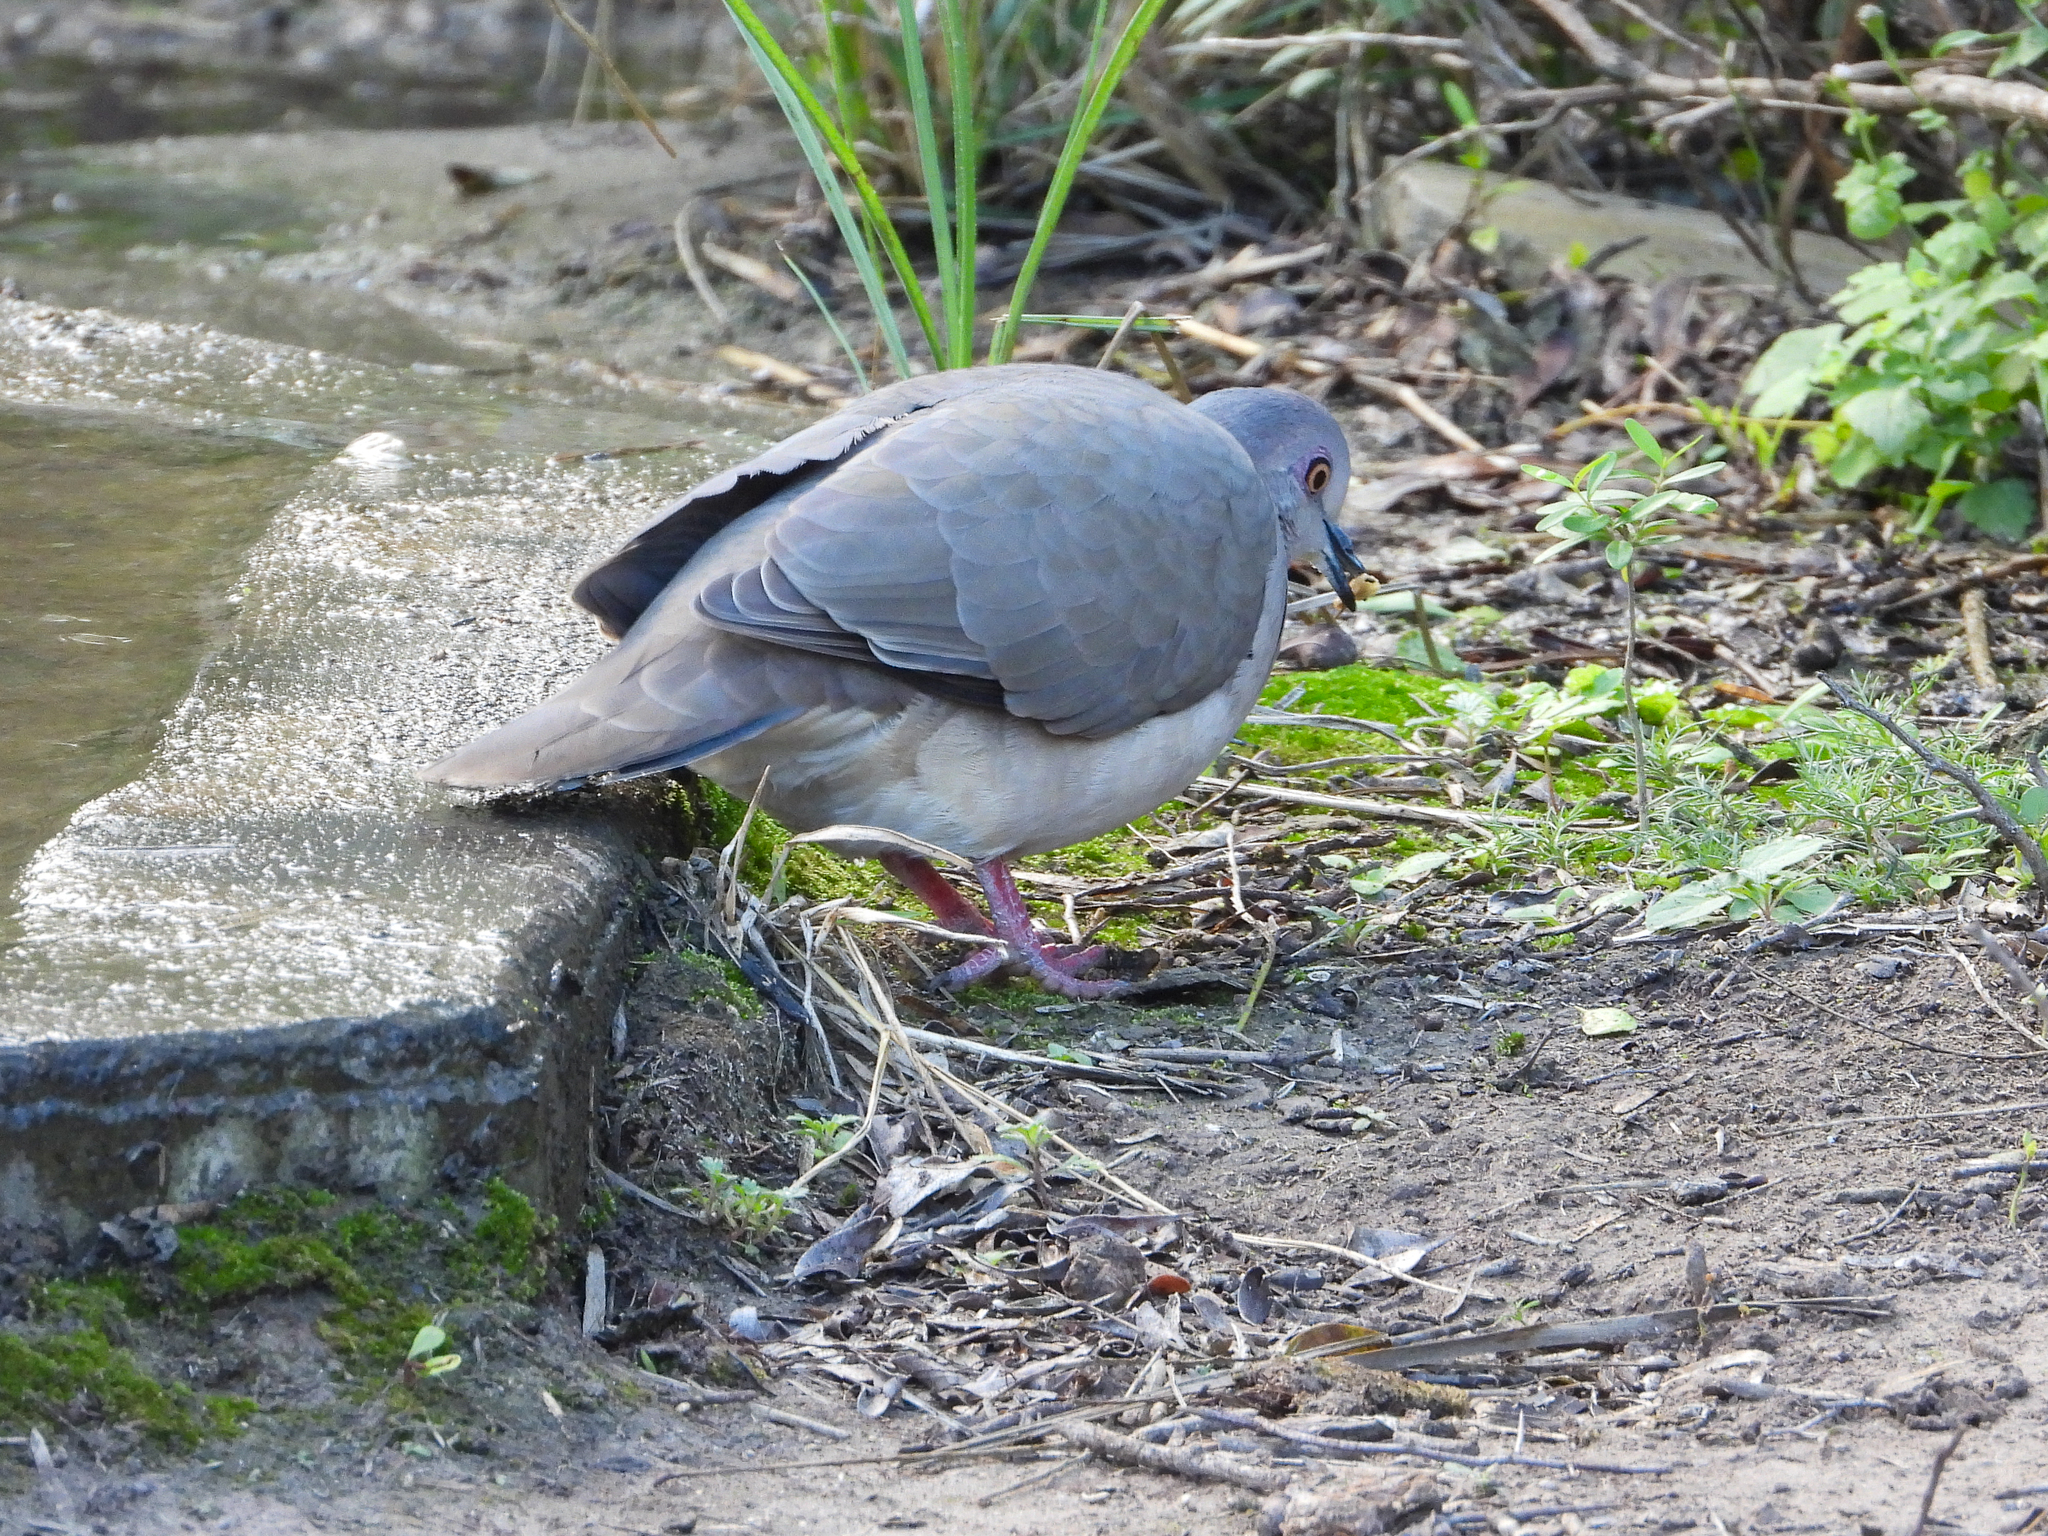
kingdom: Animalia
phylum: Chordata
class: Aves
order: Columbiformes
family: Columbidae
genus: Leptotila
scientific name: Leptotila verreauxi
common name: White-tipped dove
